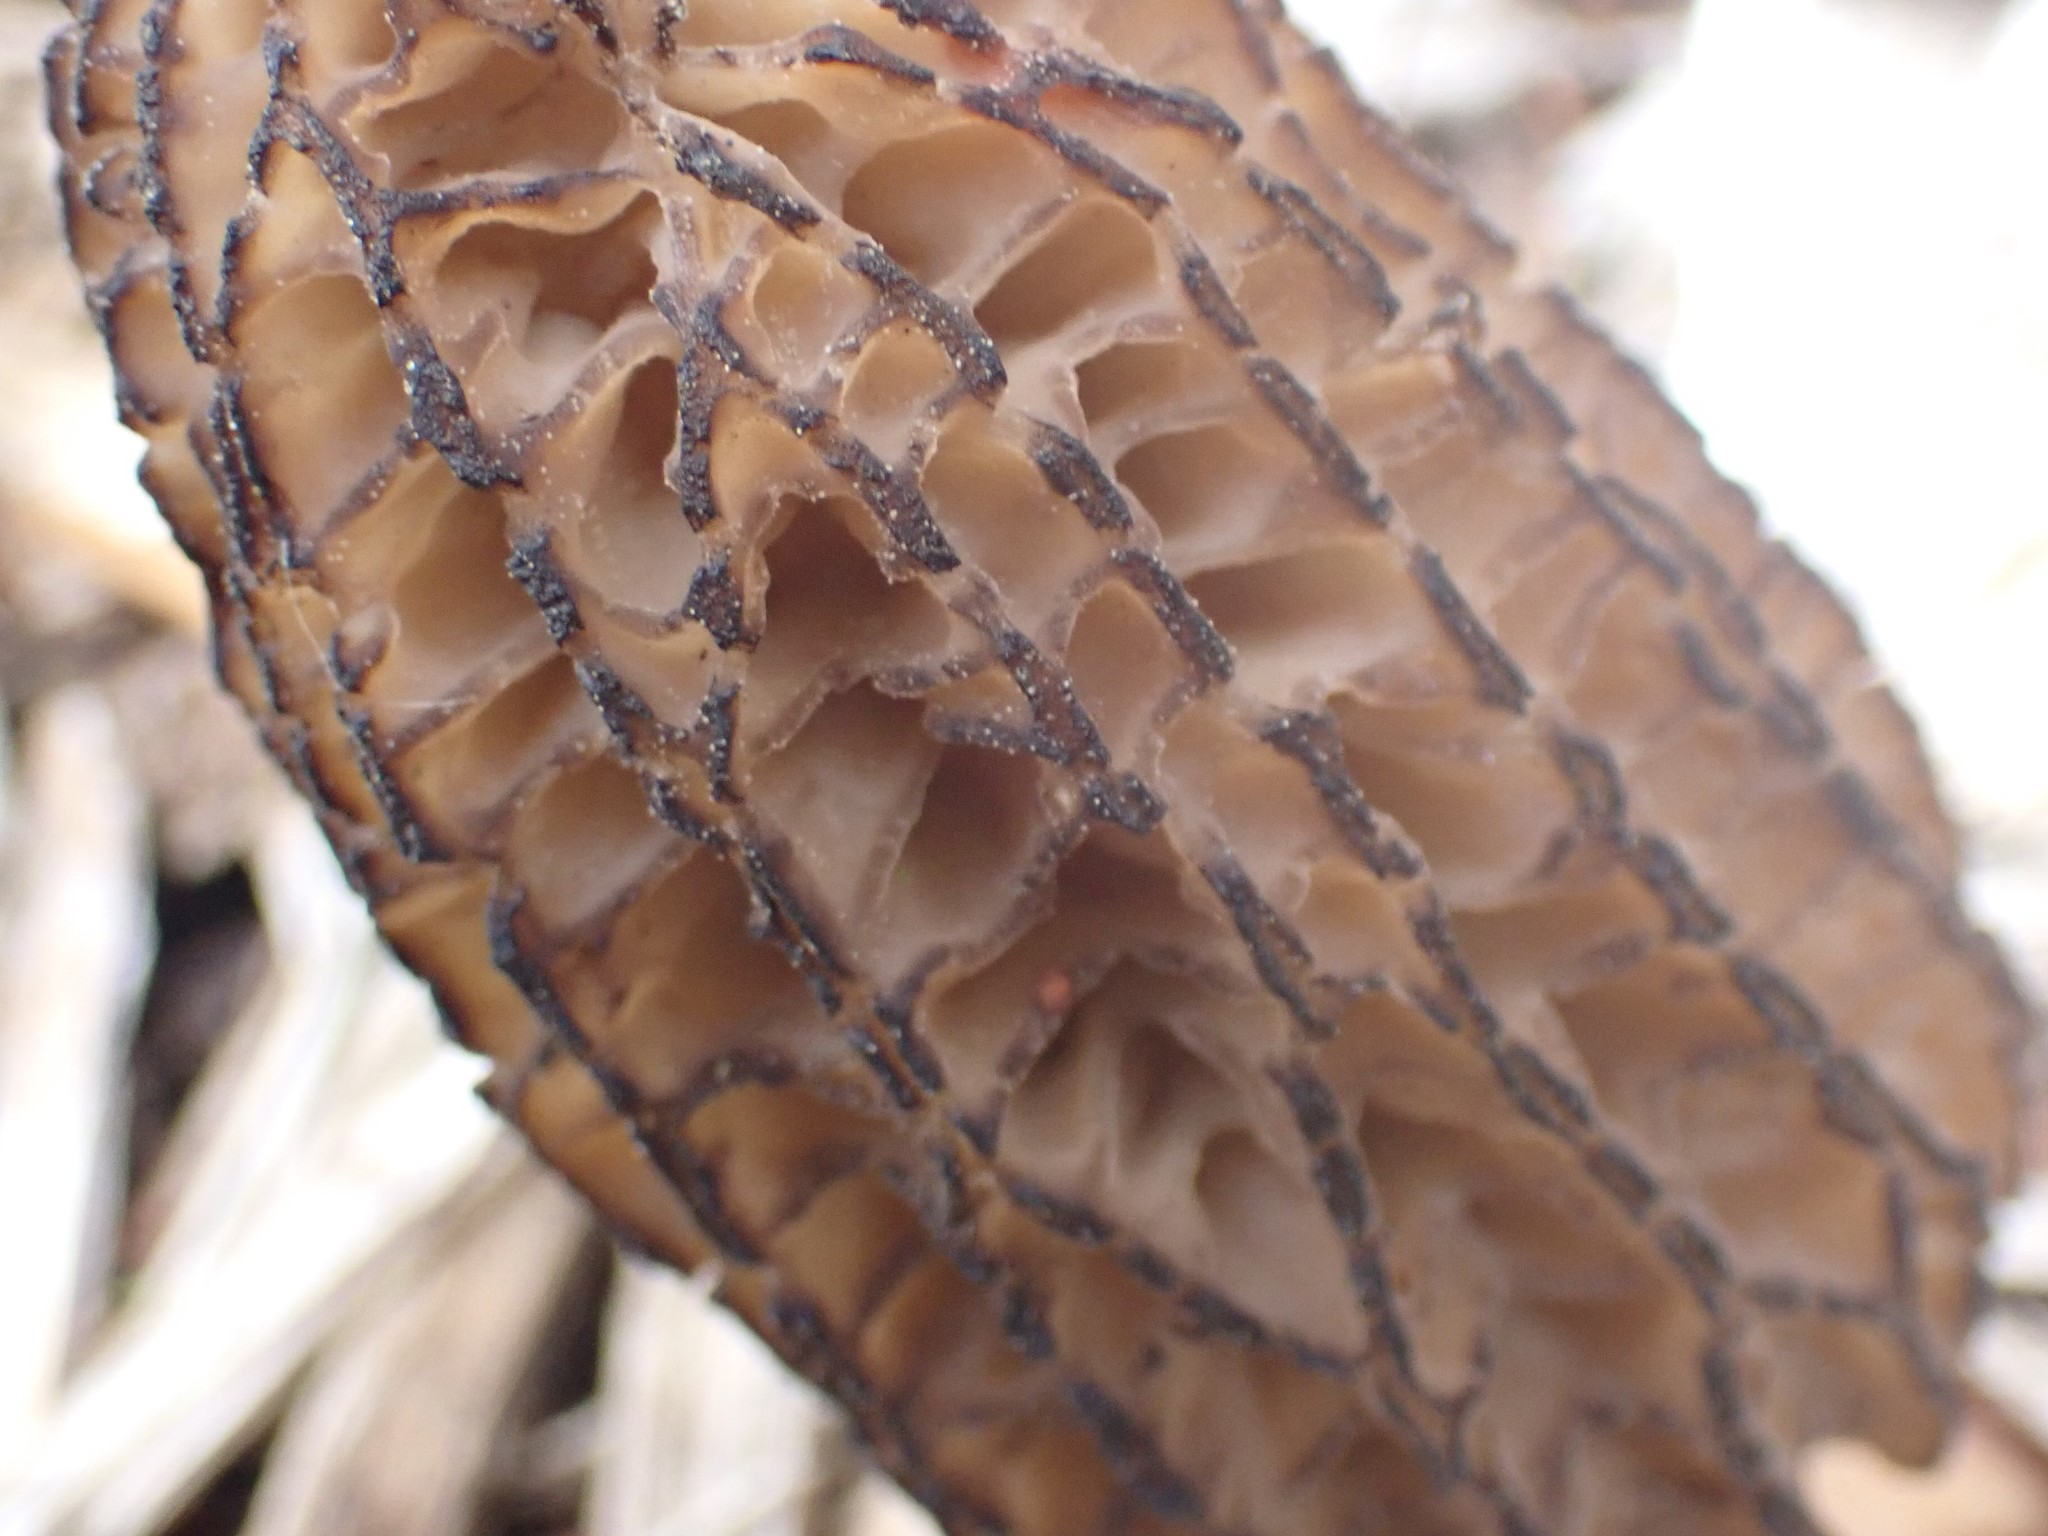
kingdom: Fungi
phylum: Ascomycota
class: Pezizomycetes
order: Pezizales
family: Morchellaceae
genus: Morchella
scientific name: Morchella importuna
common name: Landscaping black morel
